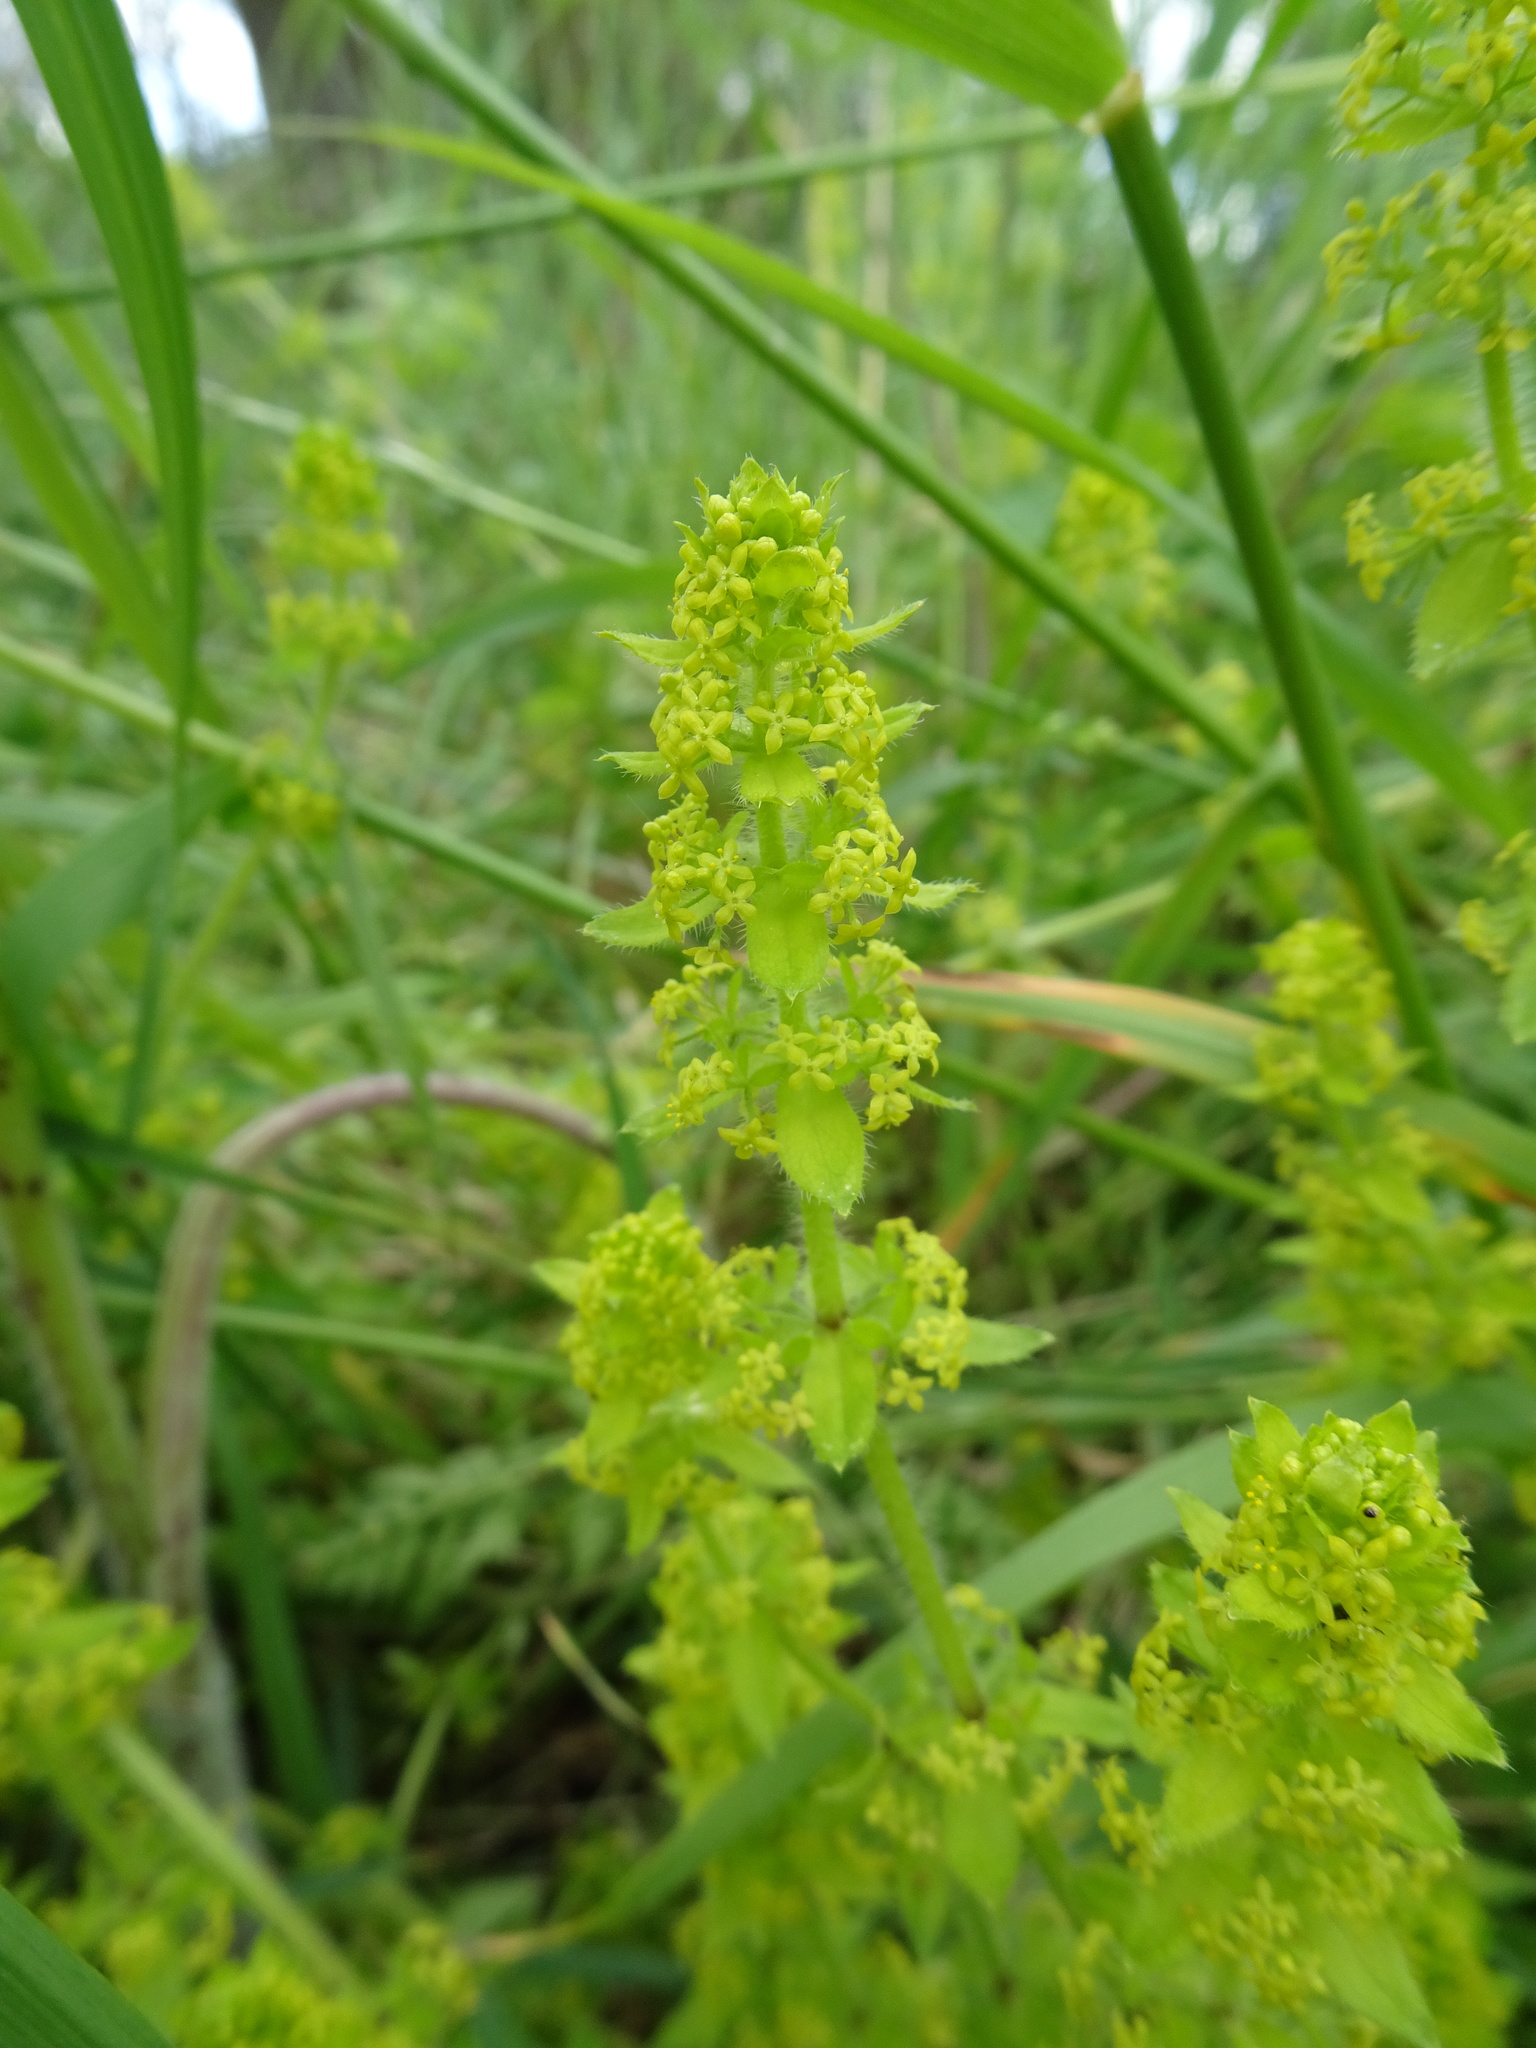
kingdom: Plantae
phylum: Tracheophyta
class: Magnoliopsida
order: Gentianales
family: Rubiaceae
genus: Cruciata
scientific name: Cruciata laevipes
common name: Crosswort
